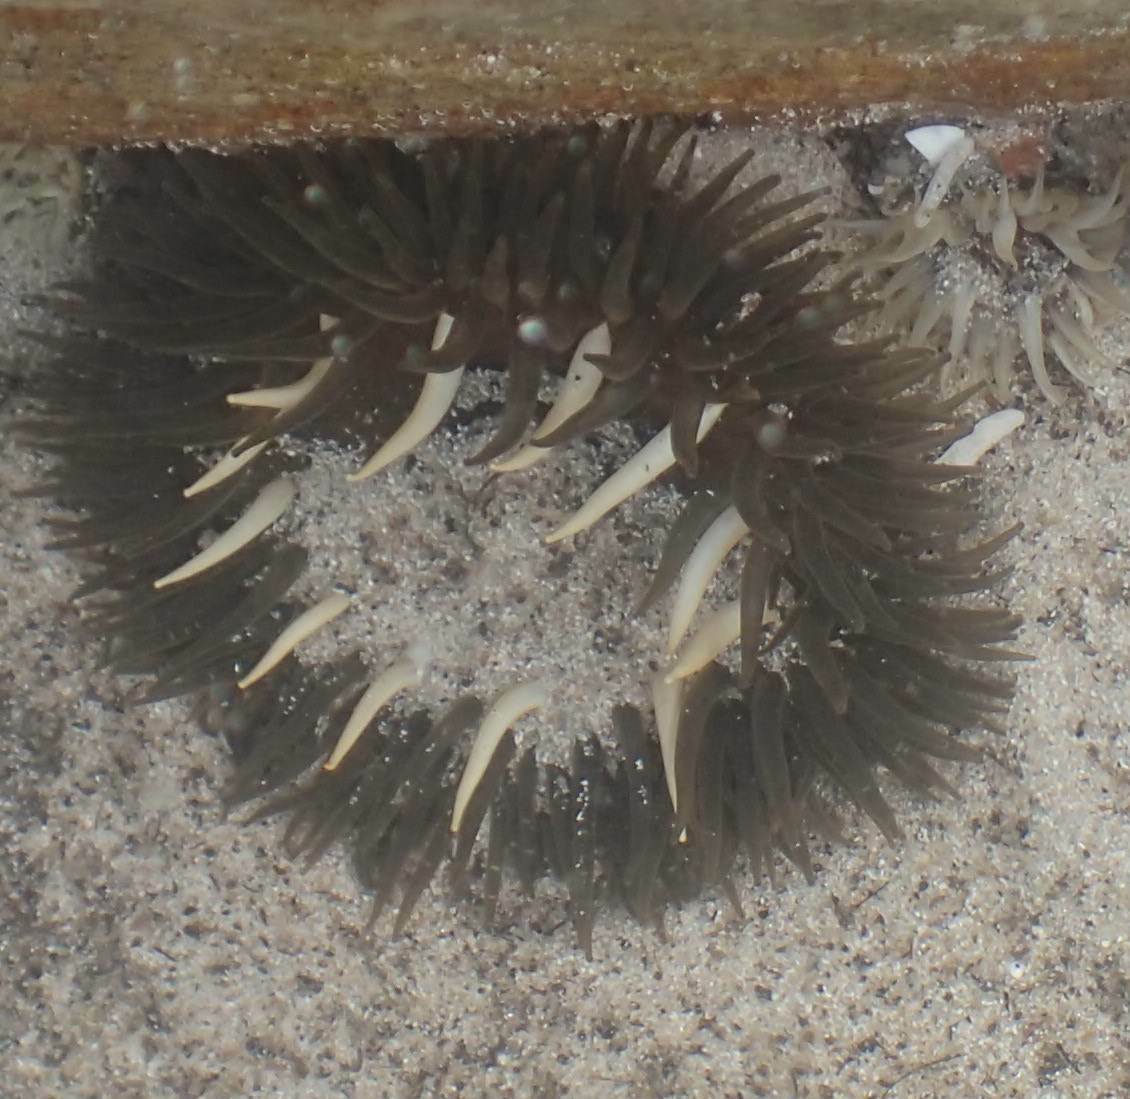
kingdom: Animalia
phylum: Cnidaria
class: Anthozoa
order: Actiniaria
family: Actiniidae
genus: Bunodactis
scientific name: Bunodactis reynaudi
